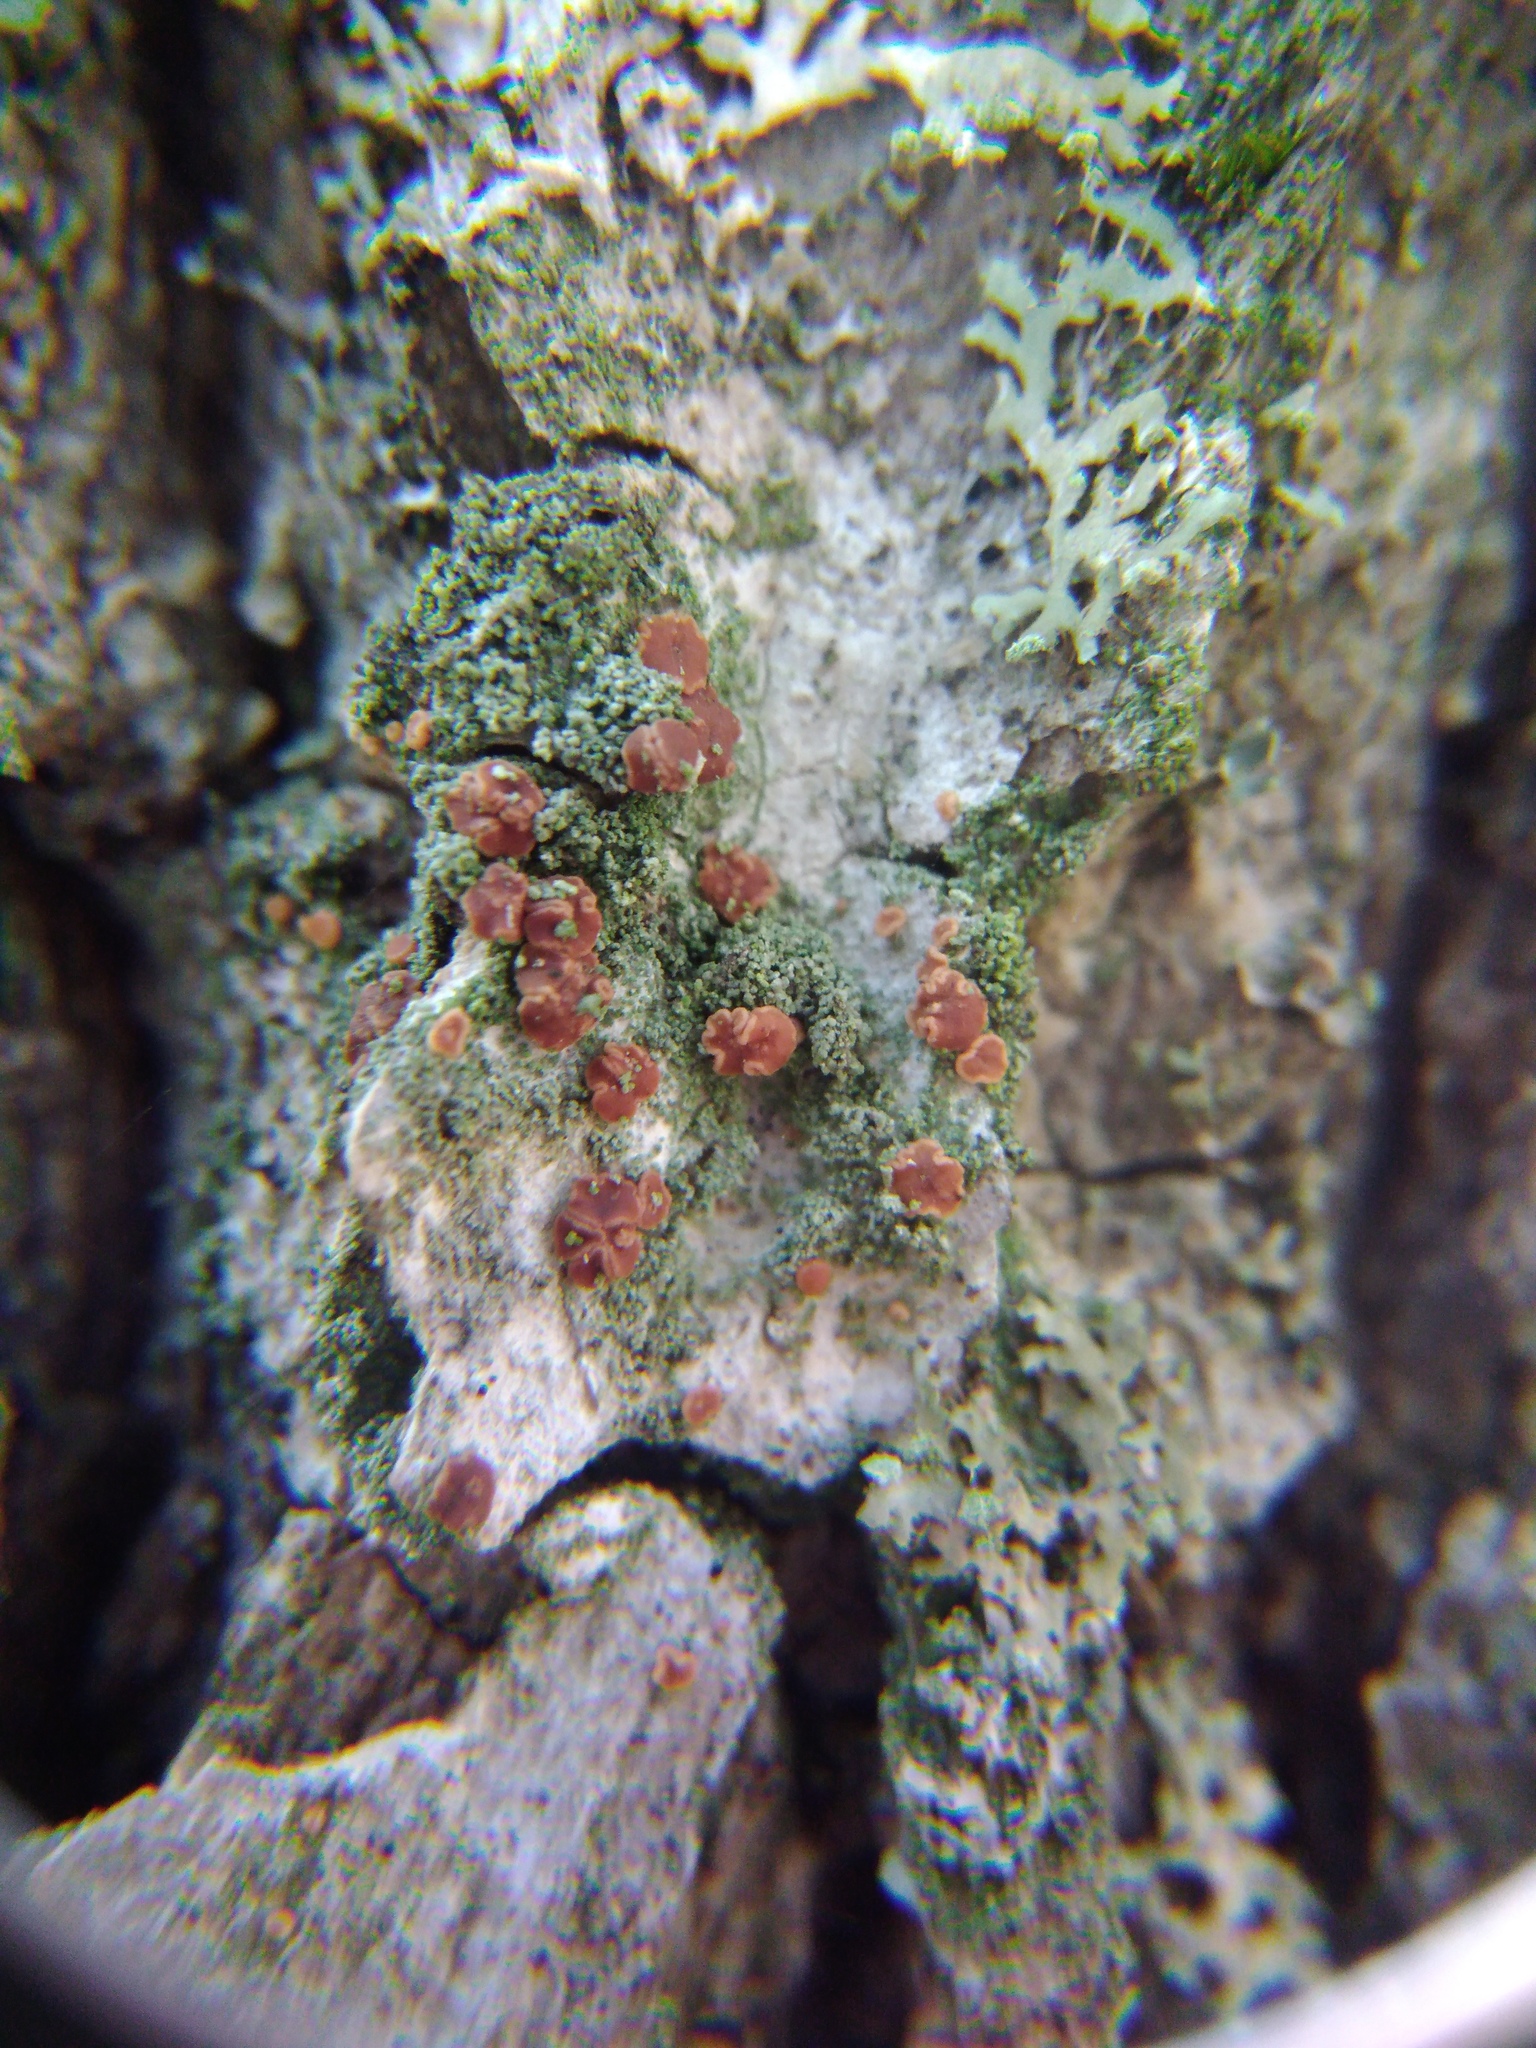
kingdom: Fungi
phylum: Ascomycota
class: Lecanoromycetes
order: Lecanorales
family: Ramalinaceae
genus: Bacidia
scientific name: Bacidia rubella
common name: Frosty-rimmed dot lichen
